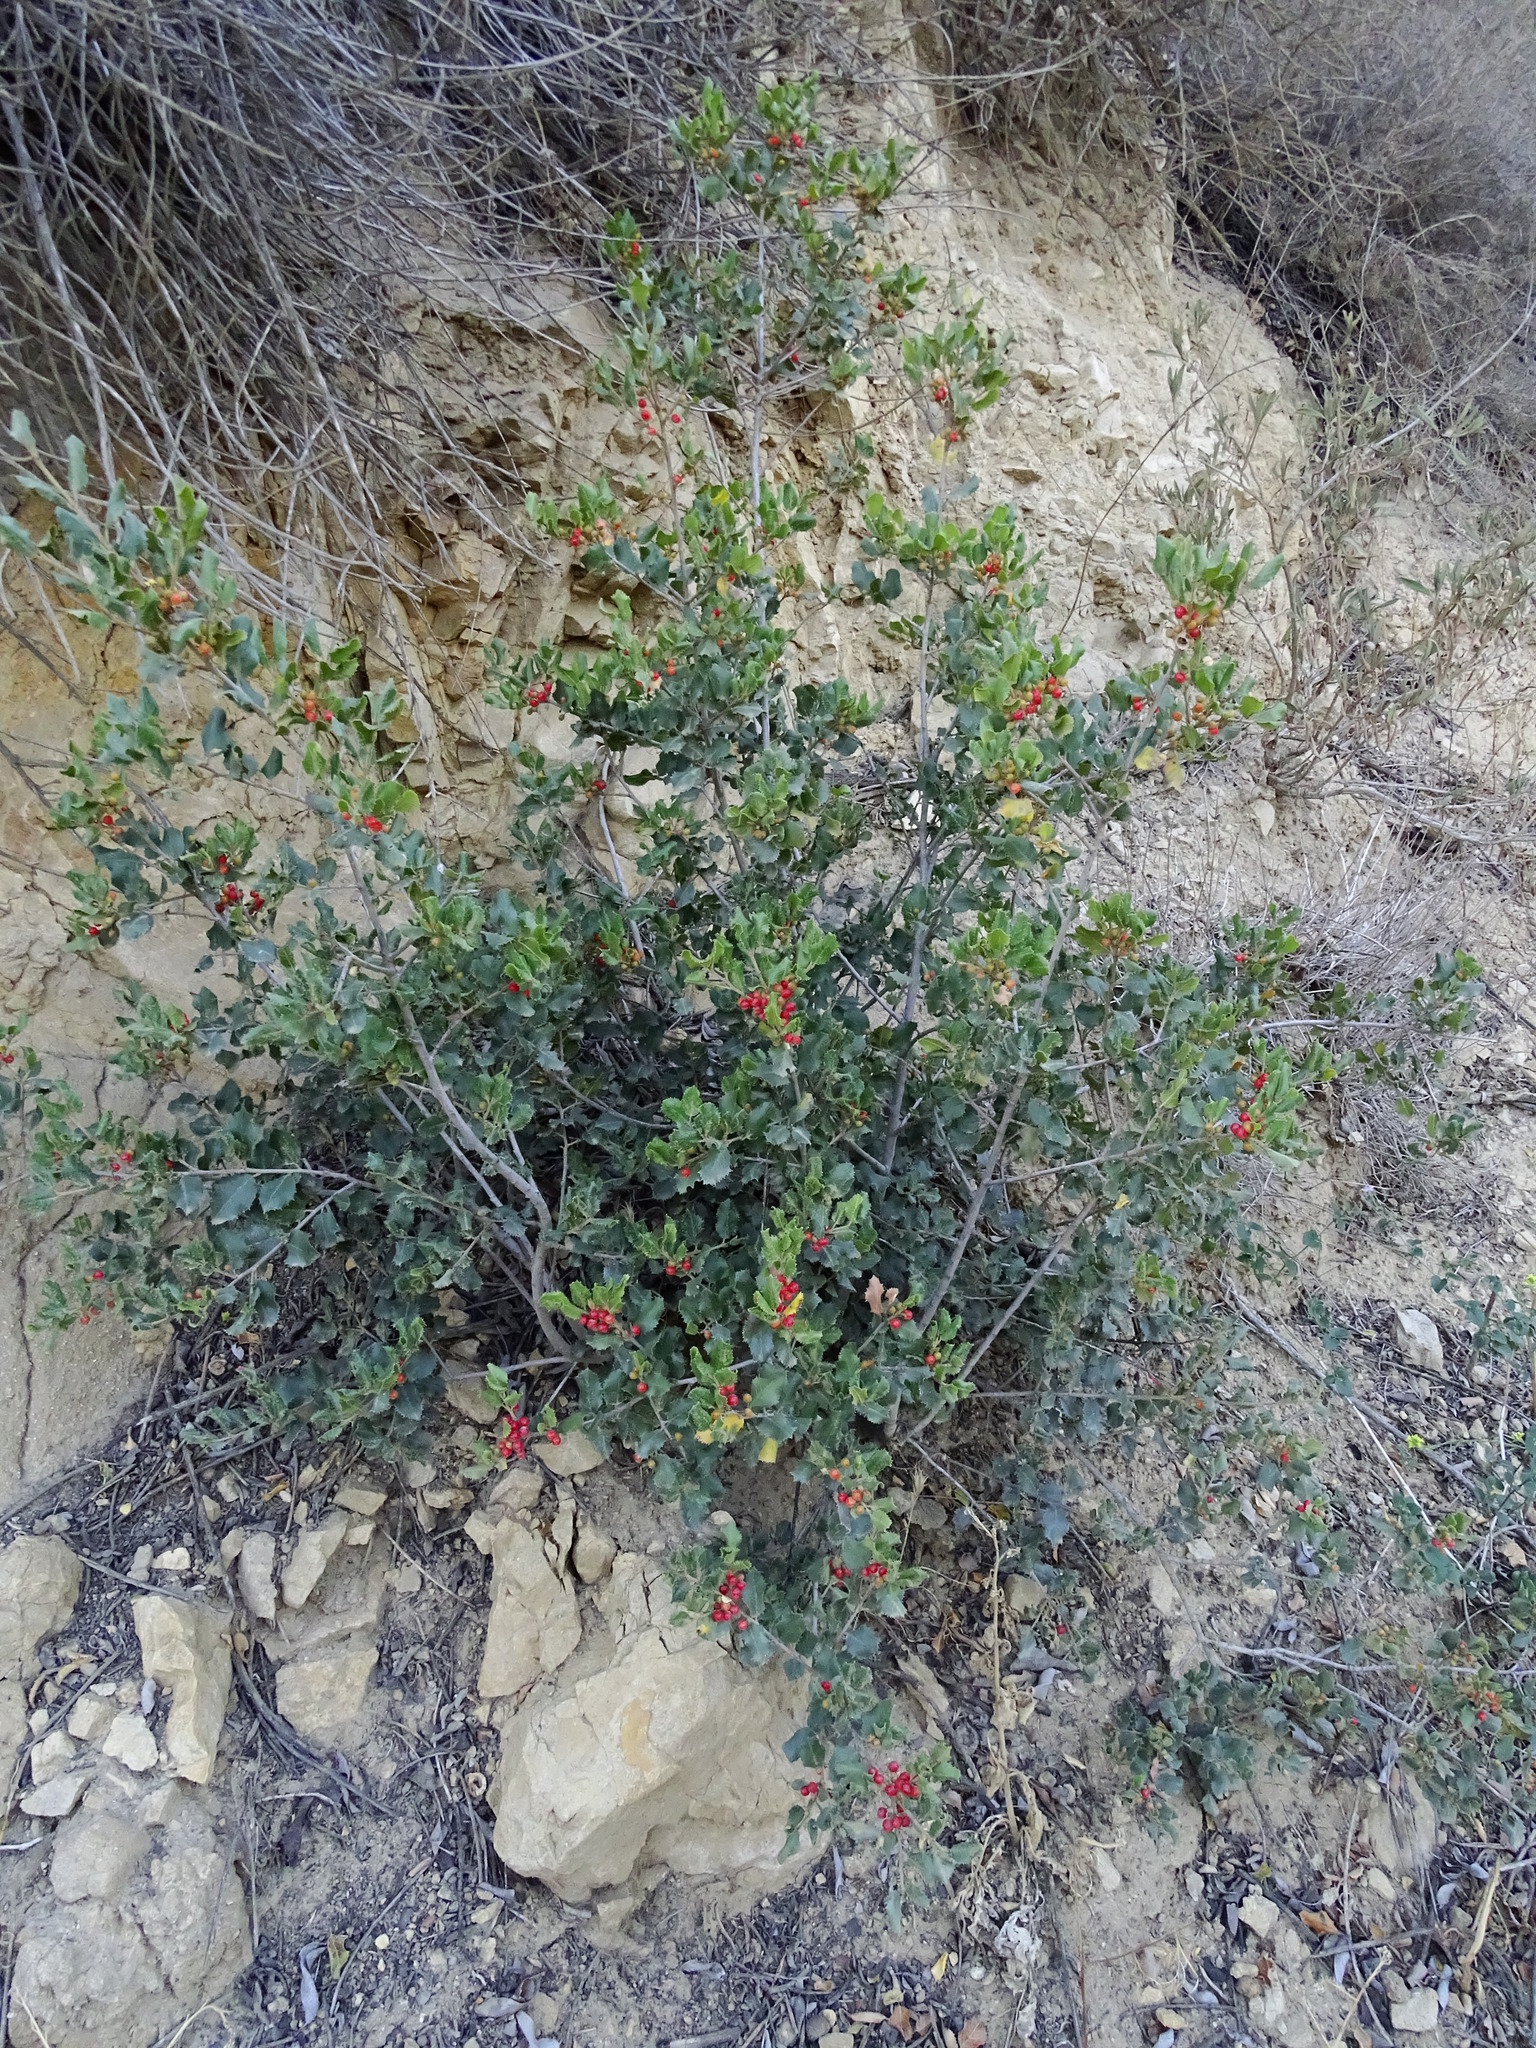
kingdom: Plantae
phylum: Tracheophyta
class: Magnoliopsida
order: Rosales
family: Rhamnaceae
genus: Endotropis
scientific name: Endotropis crocea
